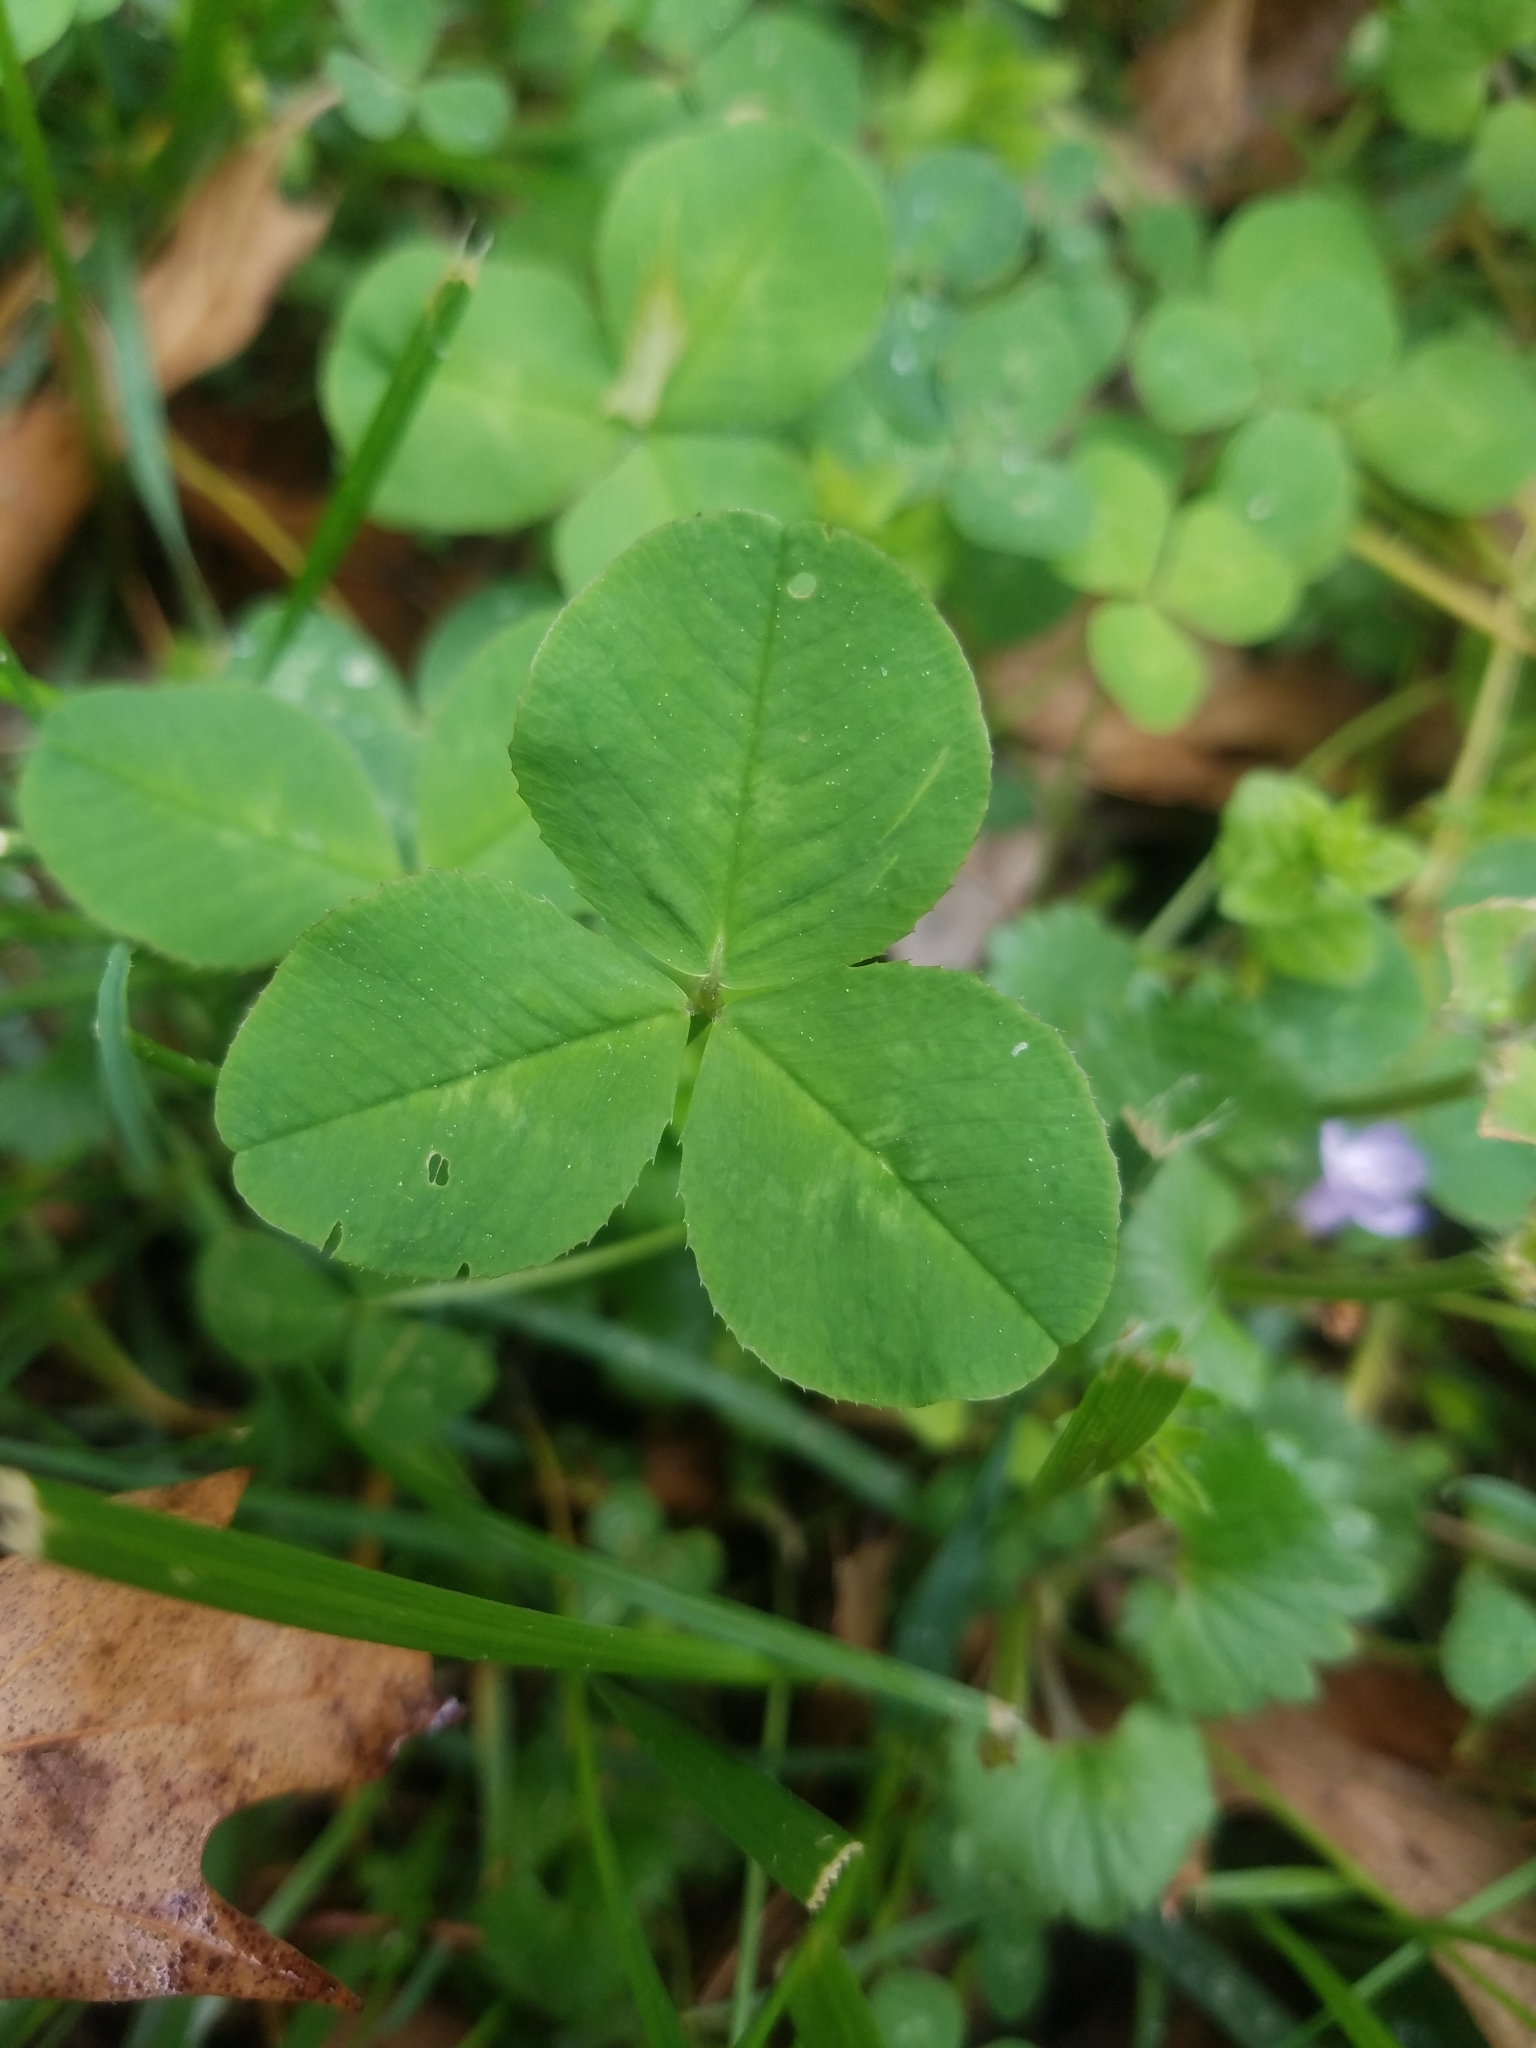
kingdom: Plantae
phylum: Tracheophyta
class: Magnoliopsida
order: Fabales
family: Fabaceae
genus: Trifolium
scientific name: Trifolium repens
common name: White clover
